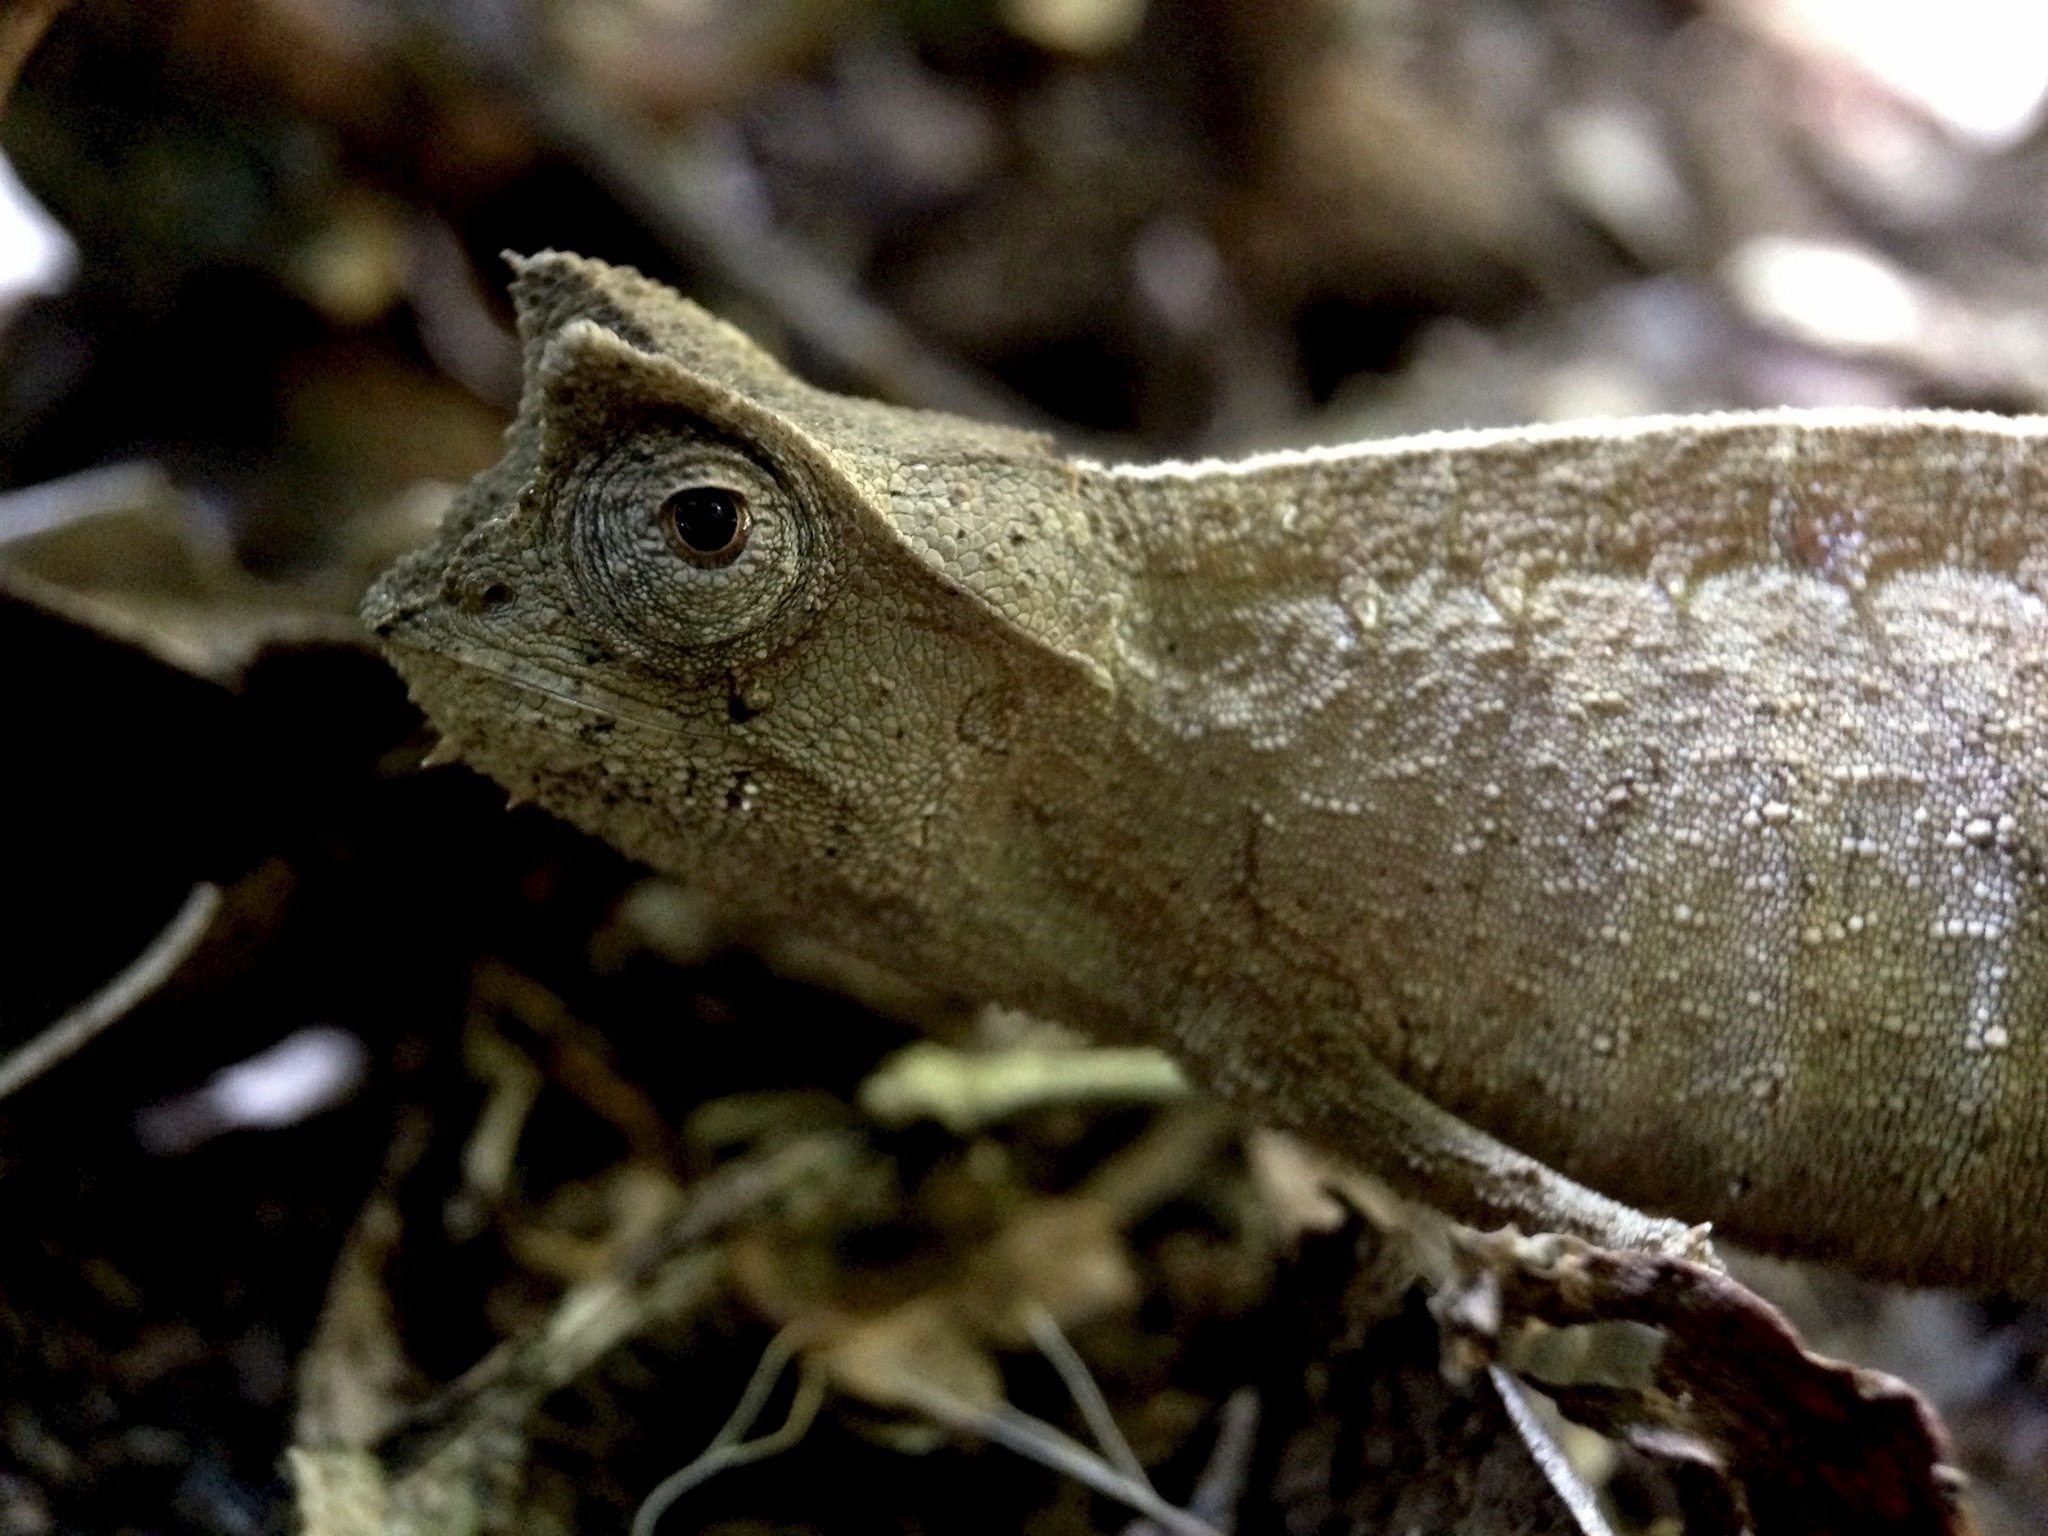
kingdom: Animalia
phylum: Chordata
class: Squamata
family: Chamaeleonidae
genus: Brookesia
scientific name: Brookesia superciliaris
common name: Brown leaf chameleon
